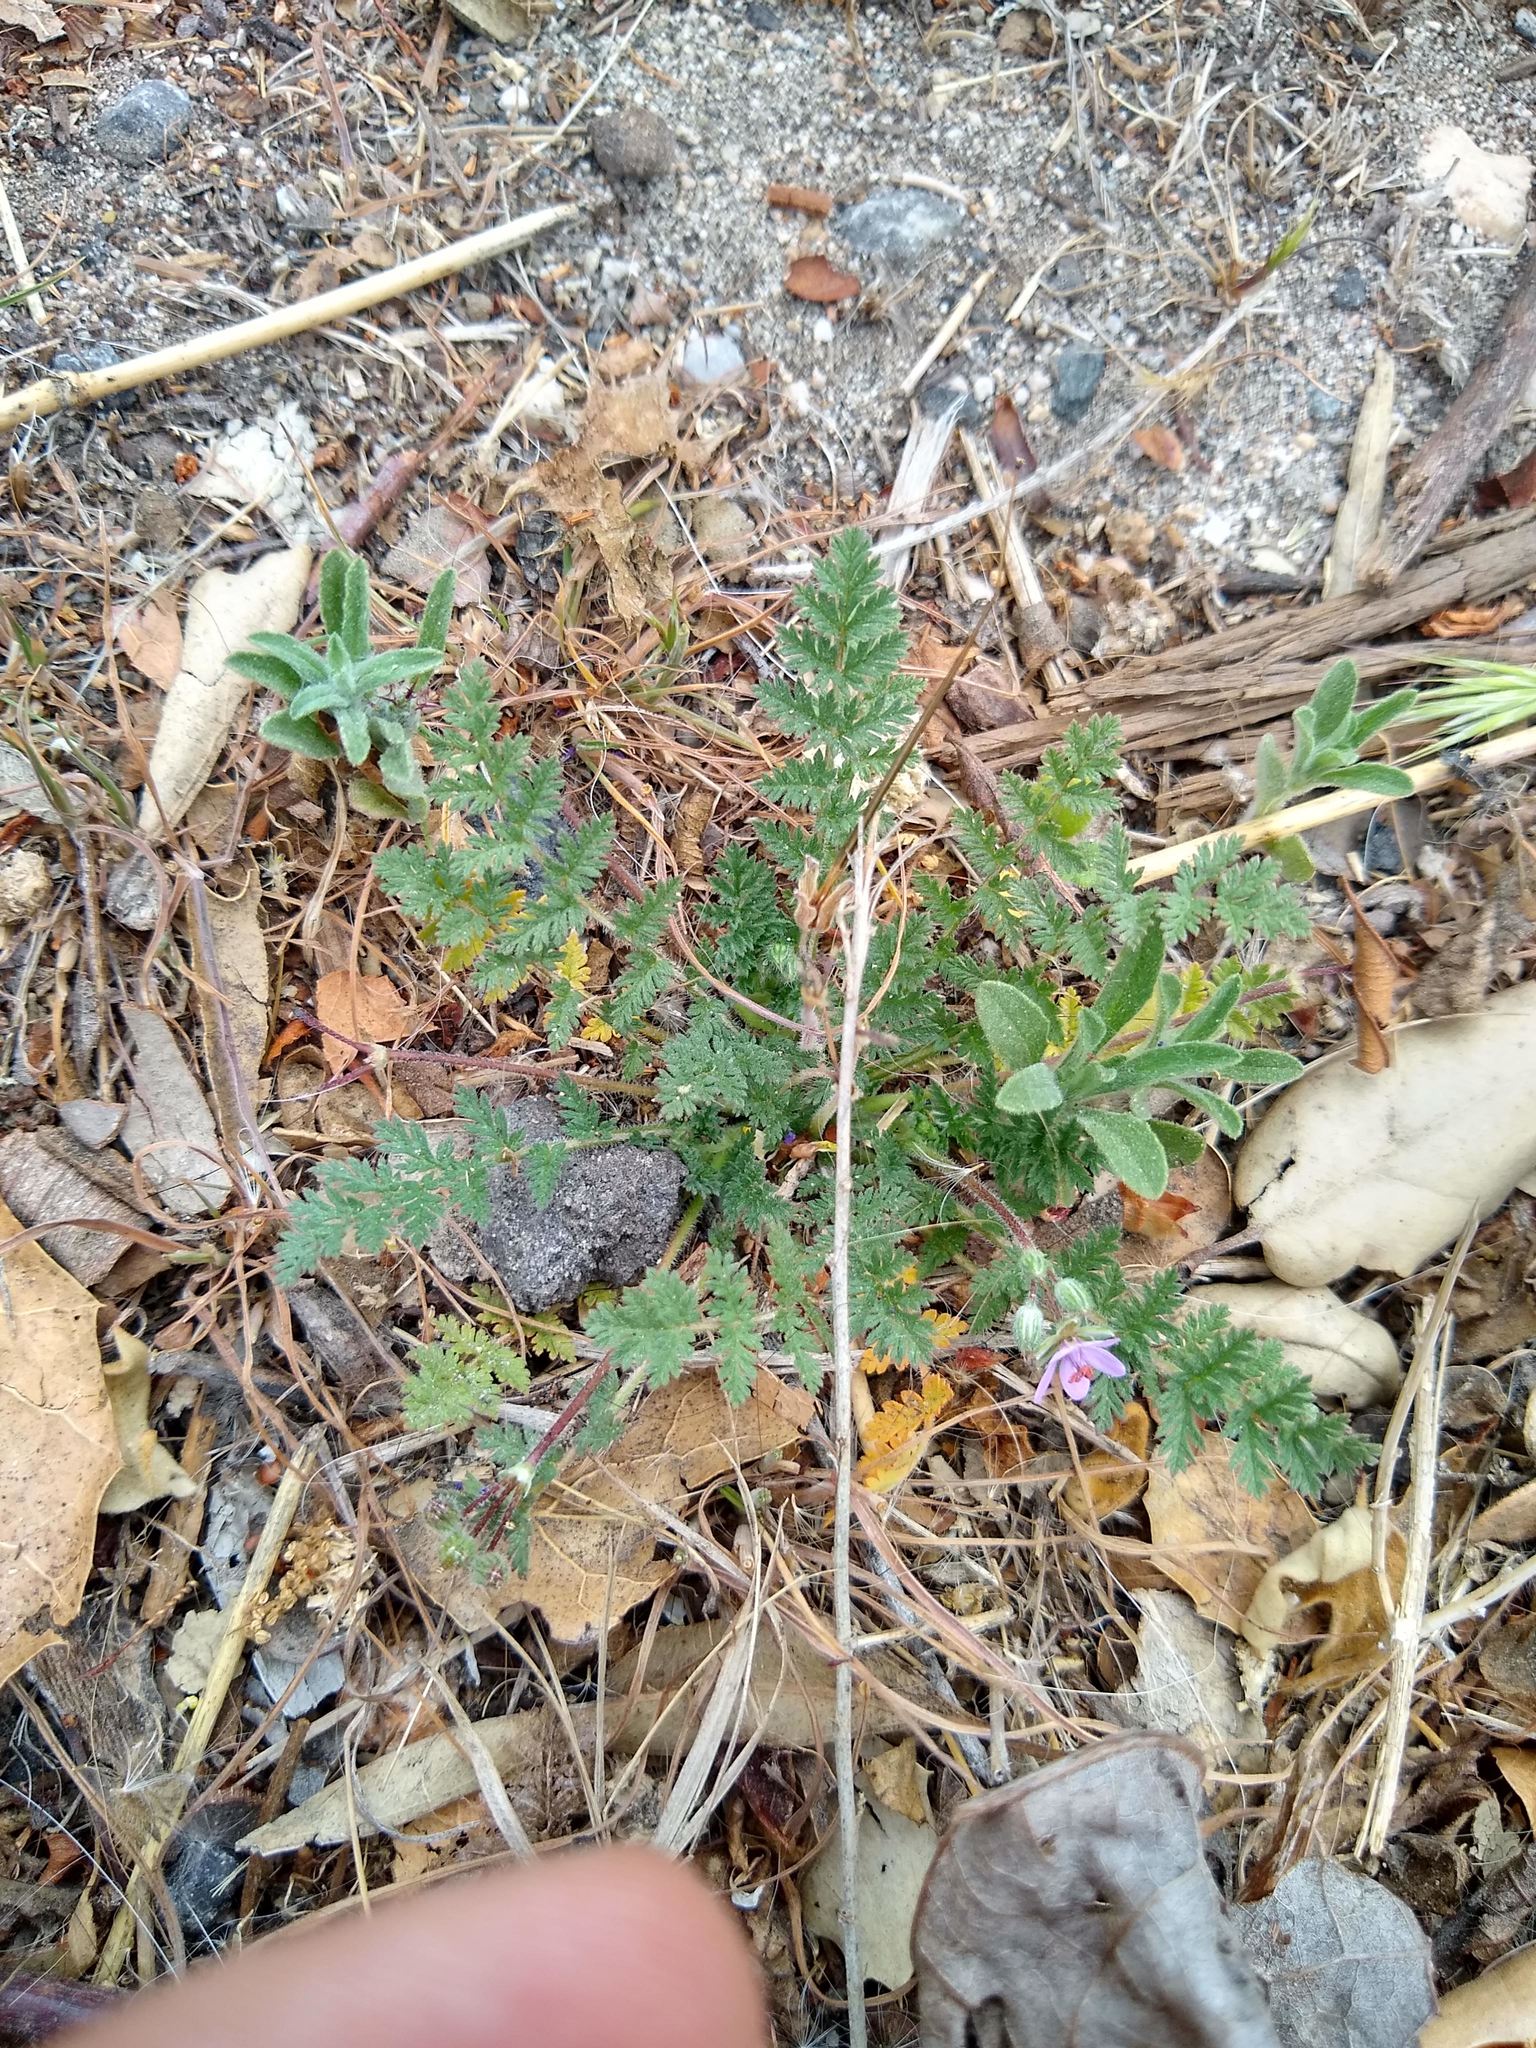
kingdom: Plantae
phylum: Tracheophyta
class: Magnoliopsida
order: Geraniales
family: Geraniaceae
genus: Erodium
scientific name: Erodium cicutarium
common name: Common stork's-bill
